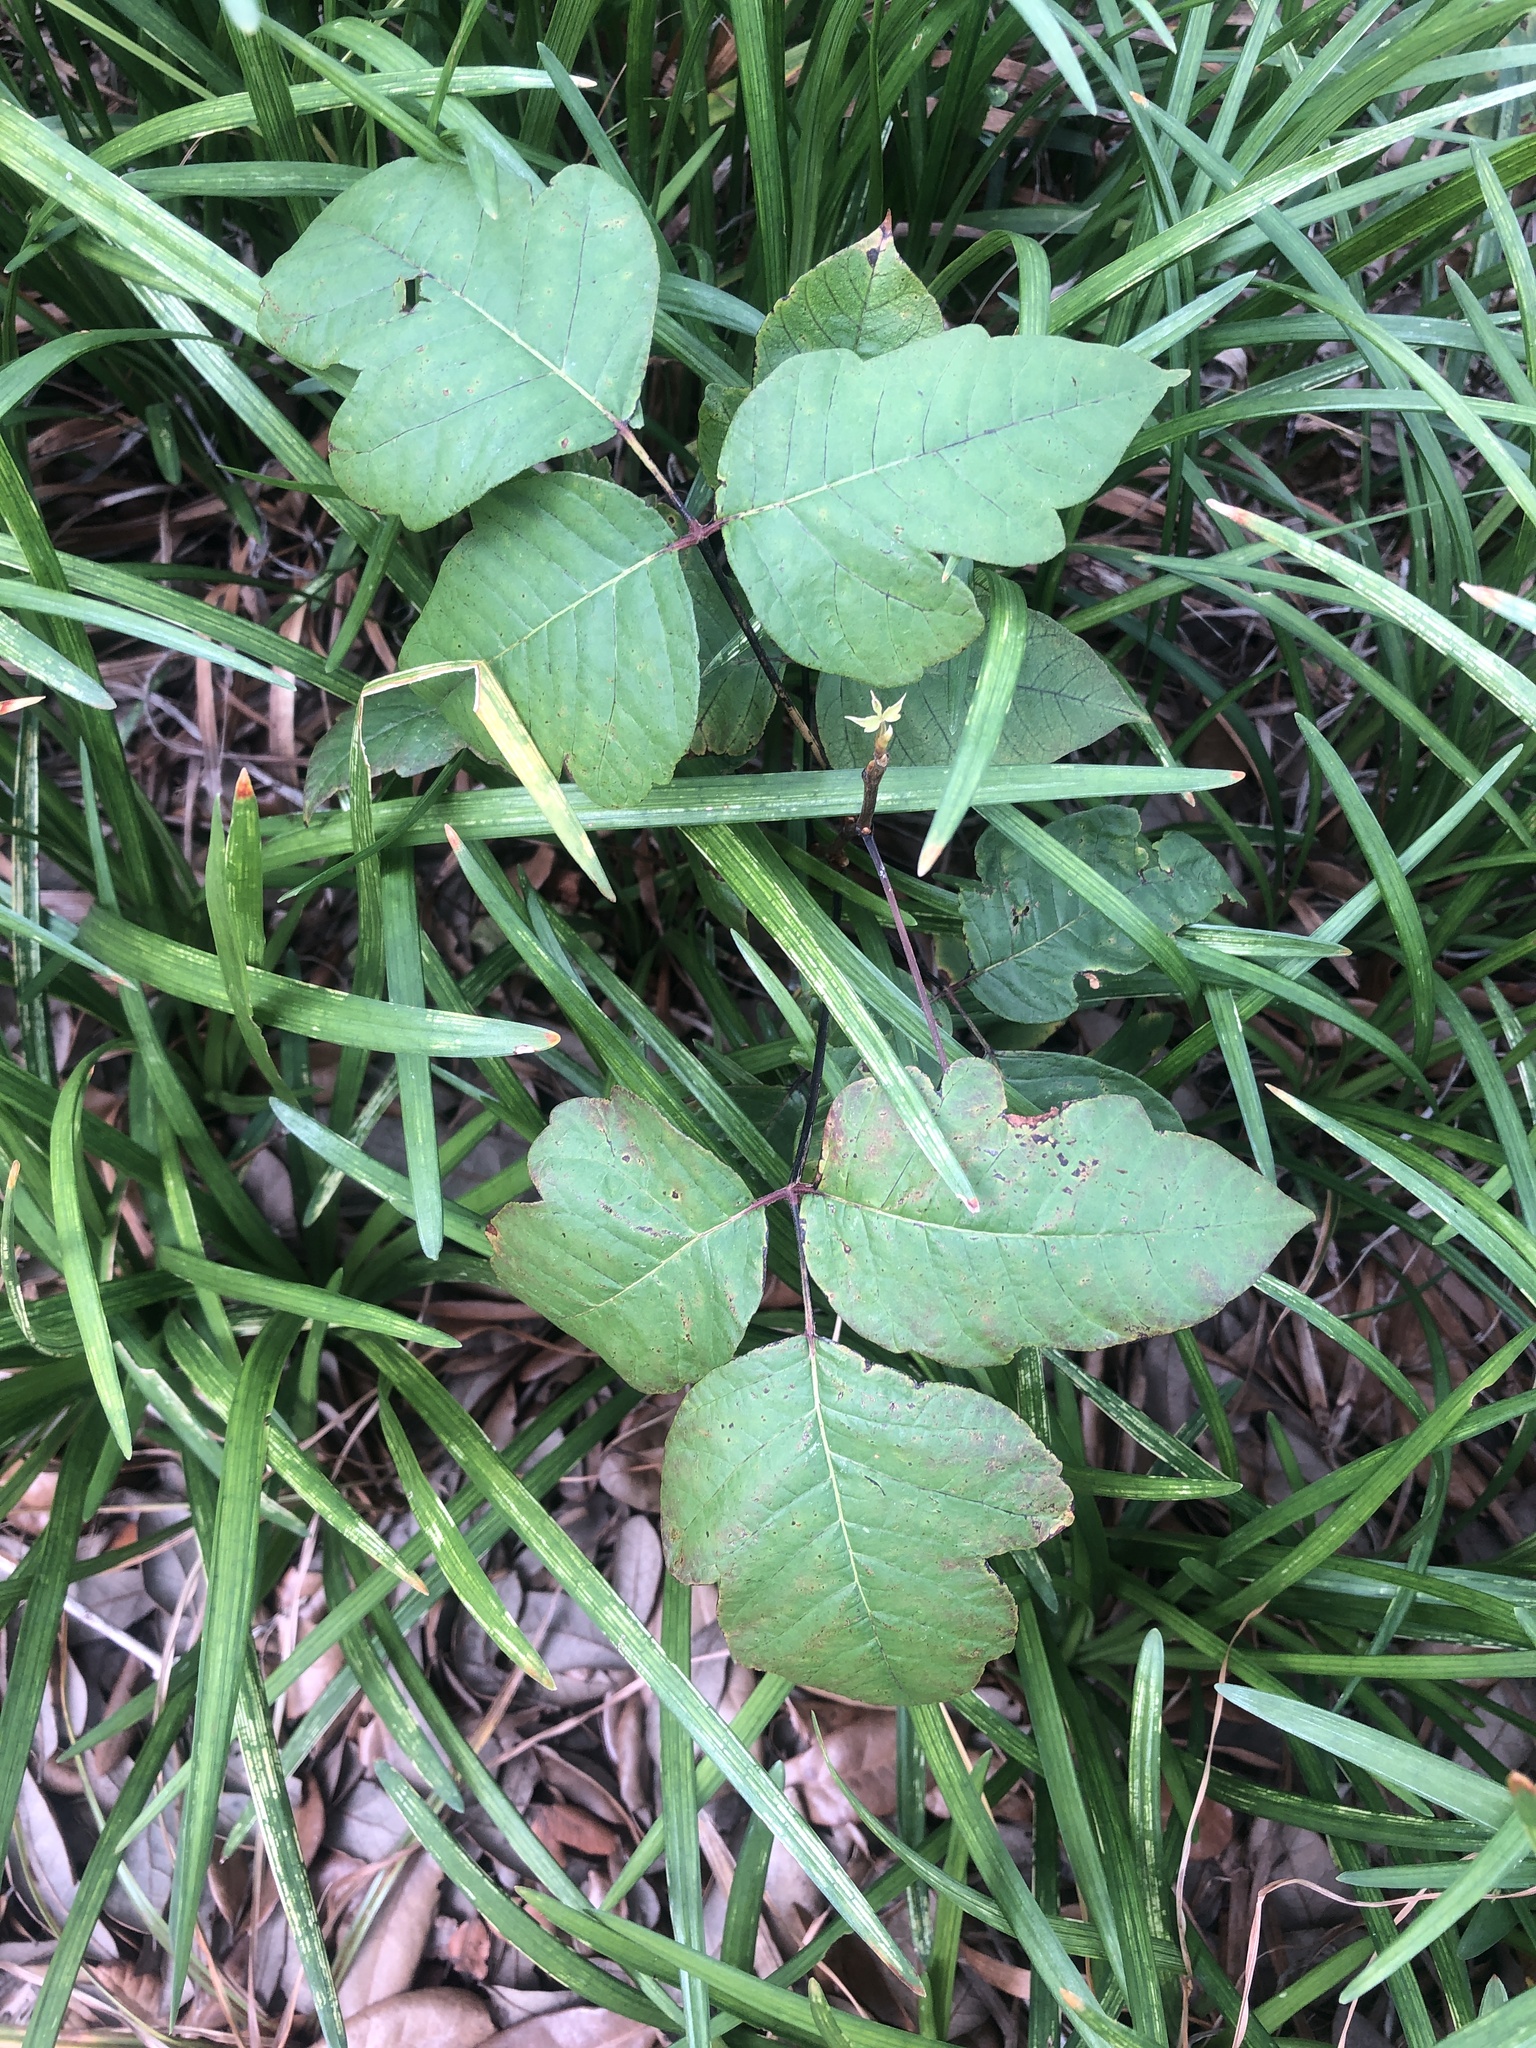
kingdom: Plantae
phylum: Tracheophyta
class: Magnoliopsida
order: Sapindales
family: Anacardiaceae
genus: Toxicodendron
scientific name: Toxicodendron radicans
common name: Poison ivy
